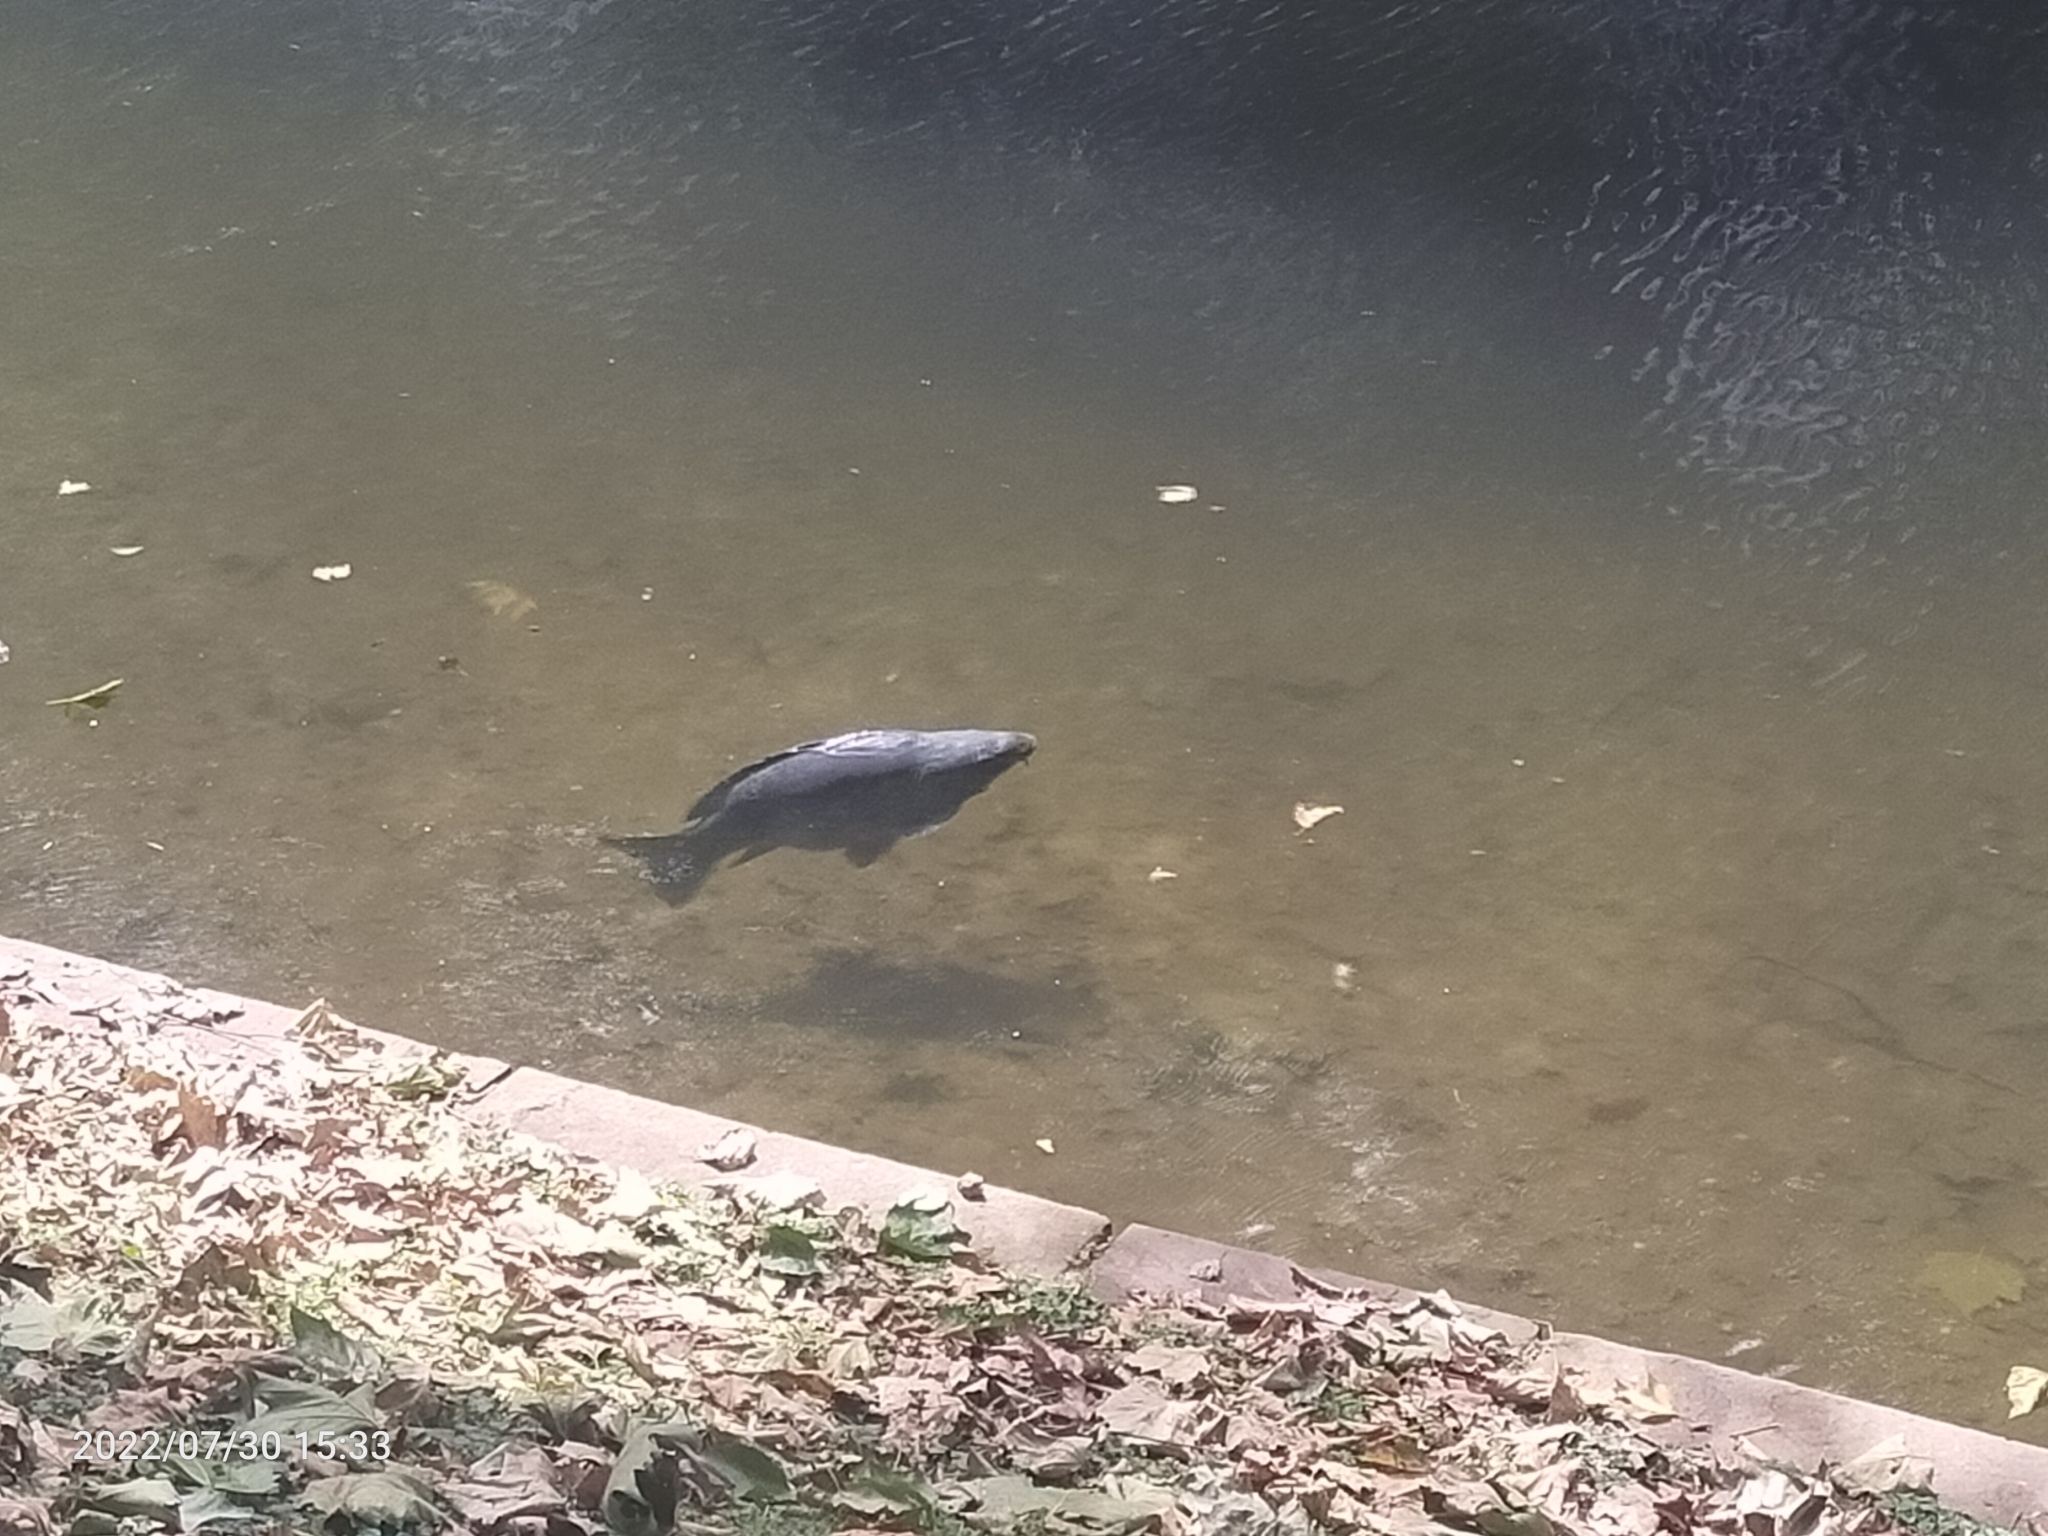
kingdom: Animalia
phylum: Chordata
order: Cypriniformes
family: Cyprinidae
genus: Cyprinus
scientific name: Cyprinus carpio
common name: Common carp
